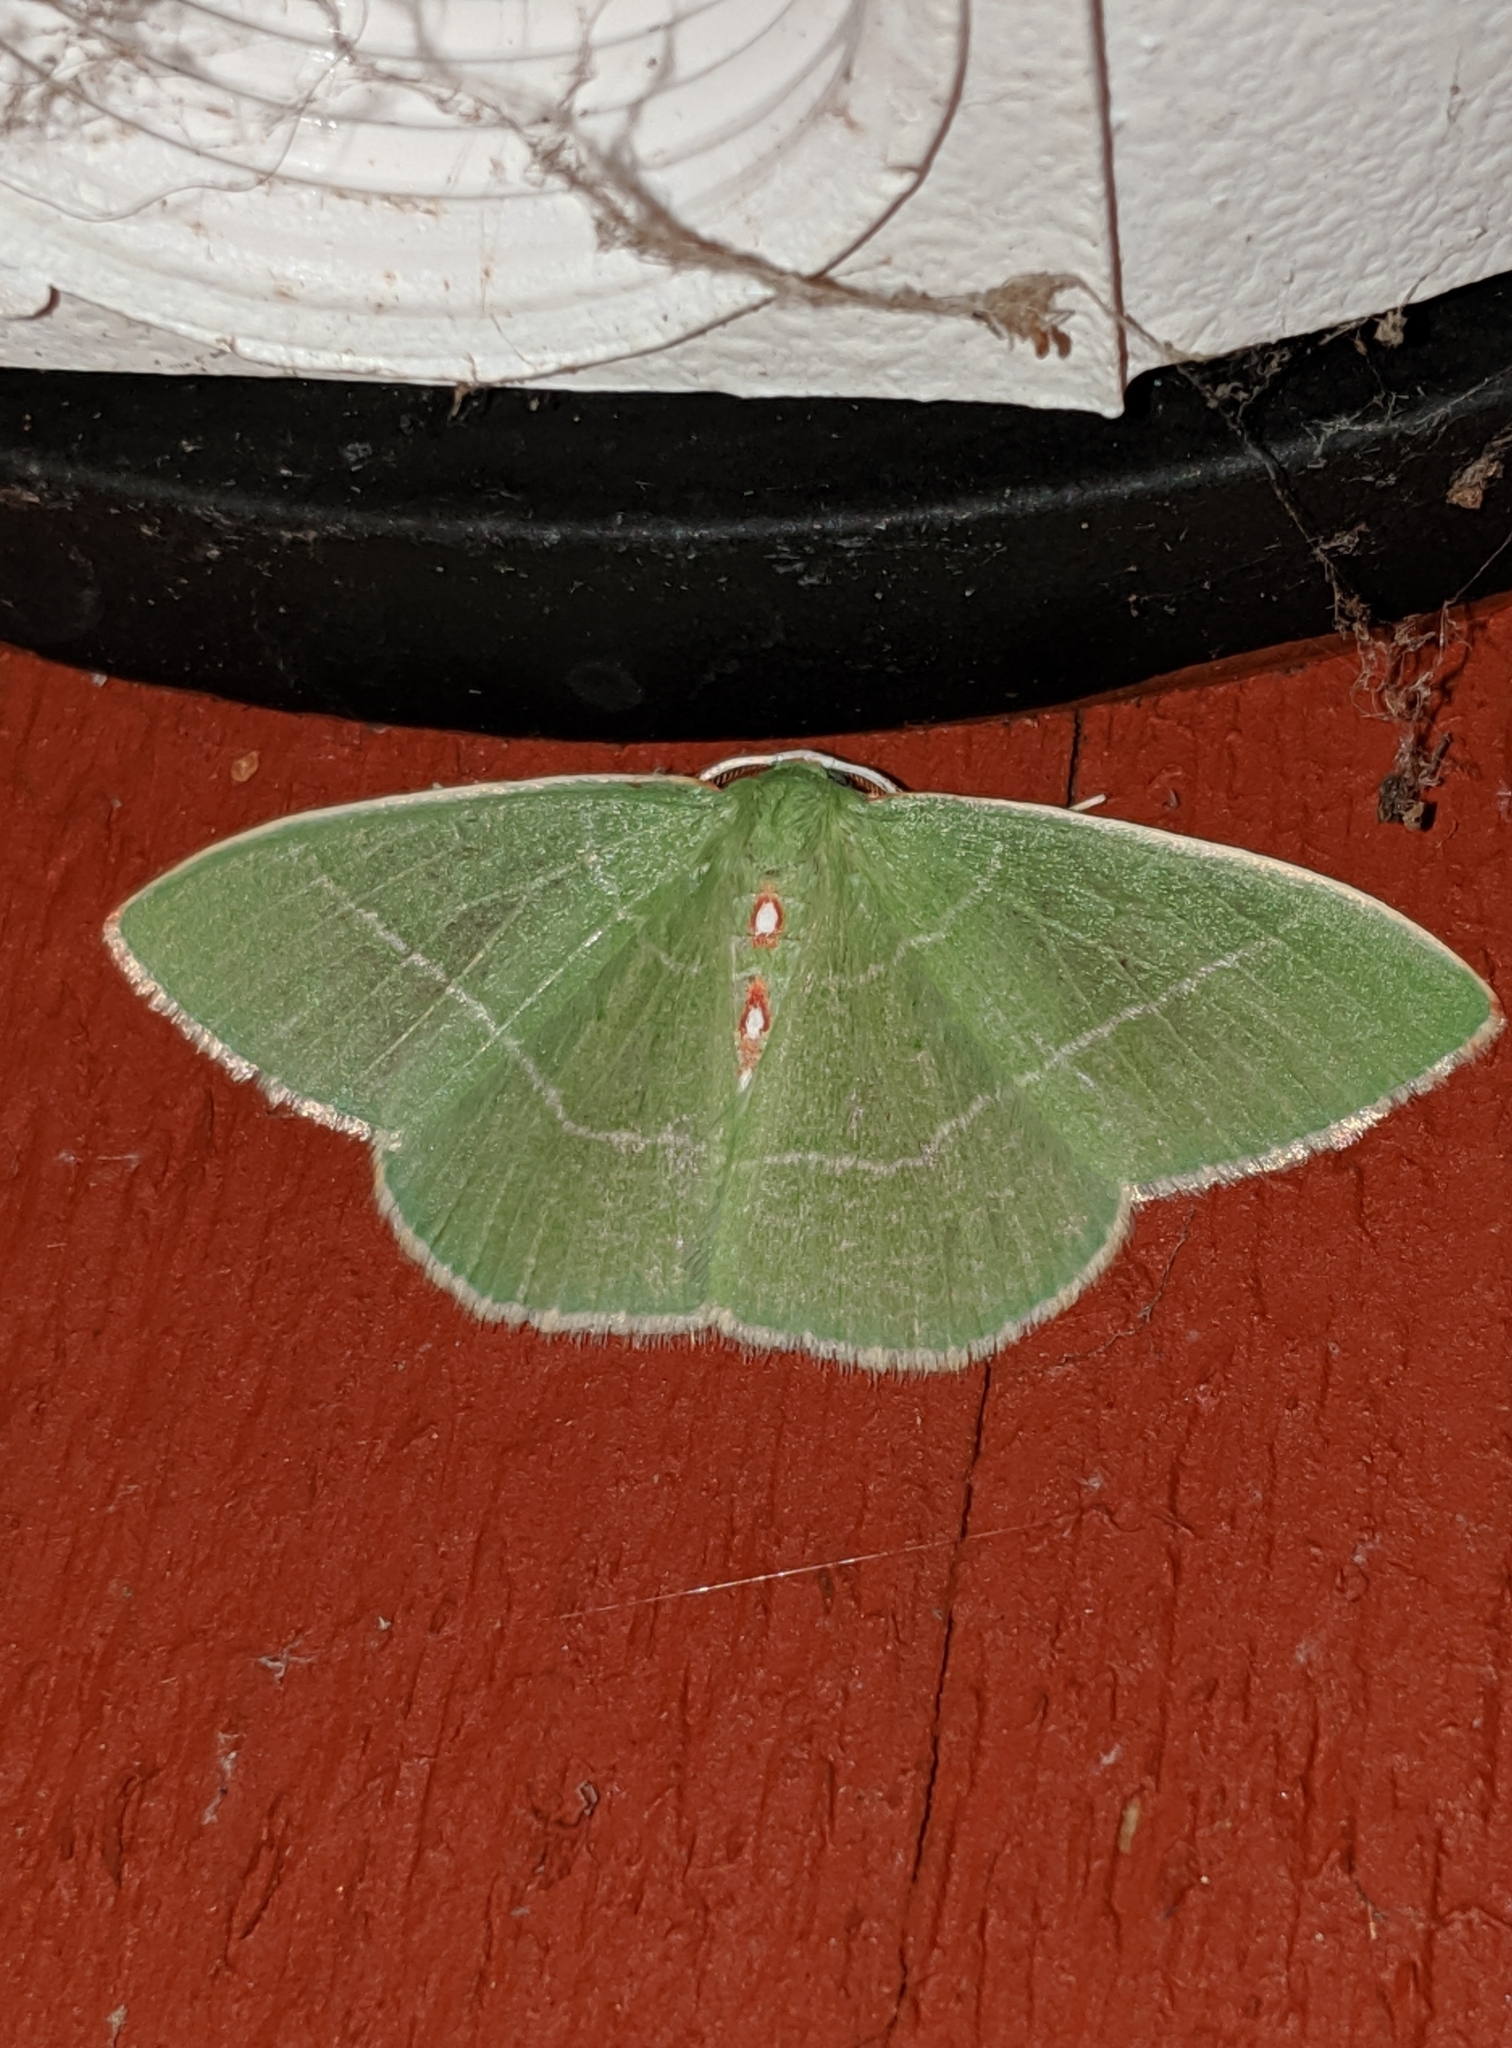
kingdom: Animalia
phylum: Arthropoda
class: Insecta
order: Lepidoptera
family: Geometridae
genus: Nemoria
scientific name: Nemoria darwiniata
